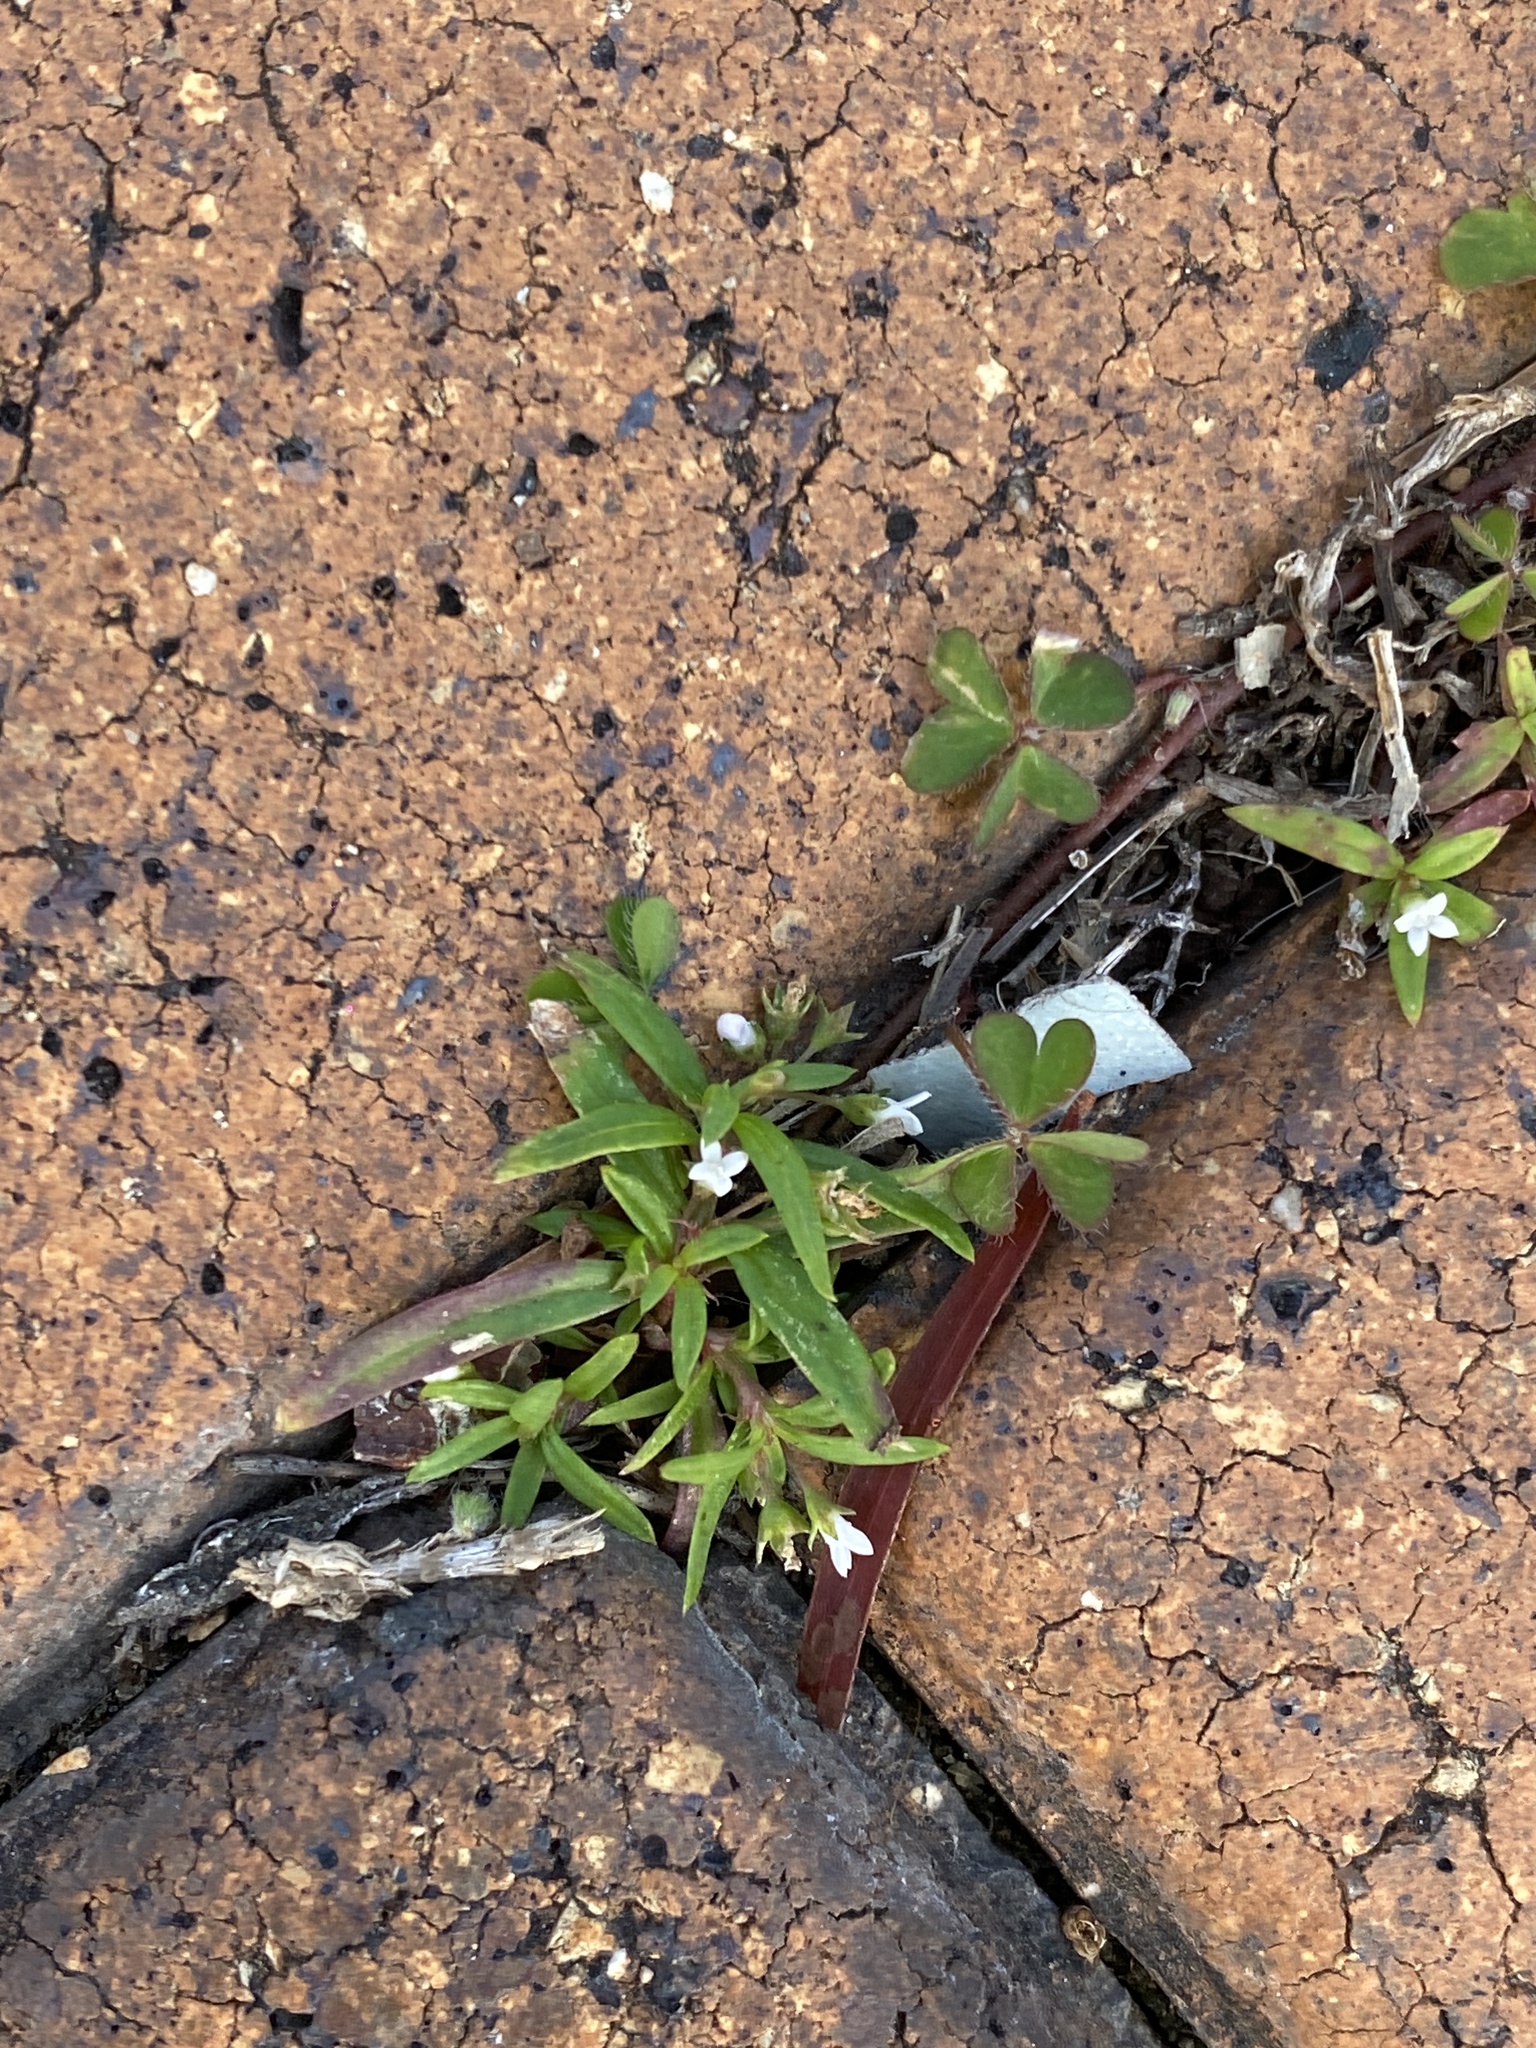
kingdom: Plantae
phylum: Tracheophyta
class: Magnoliopsida
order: Gentianales
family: Rubiaceae
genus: Oldenlandia
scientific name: Oldenlandia corymbosa
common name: Flat-top mille graines
